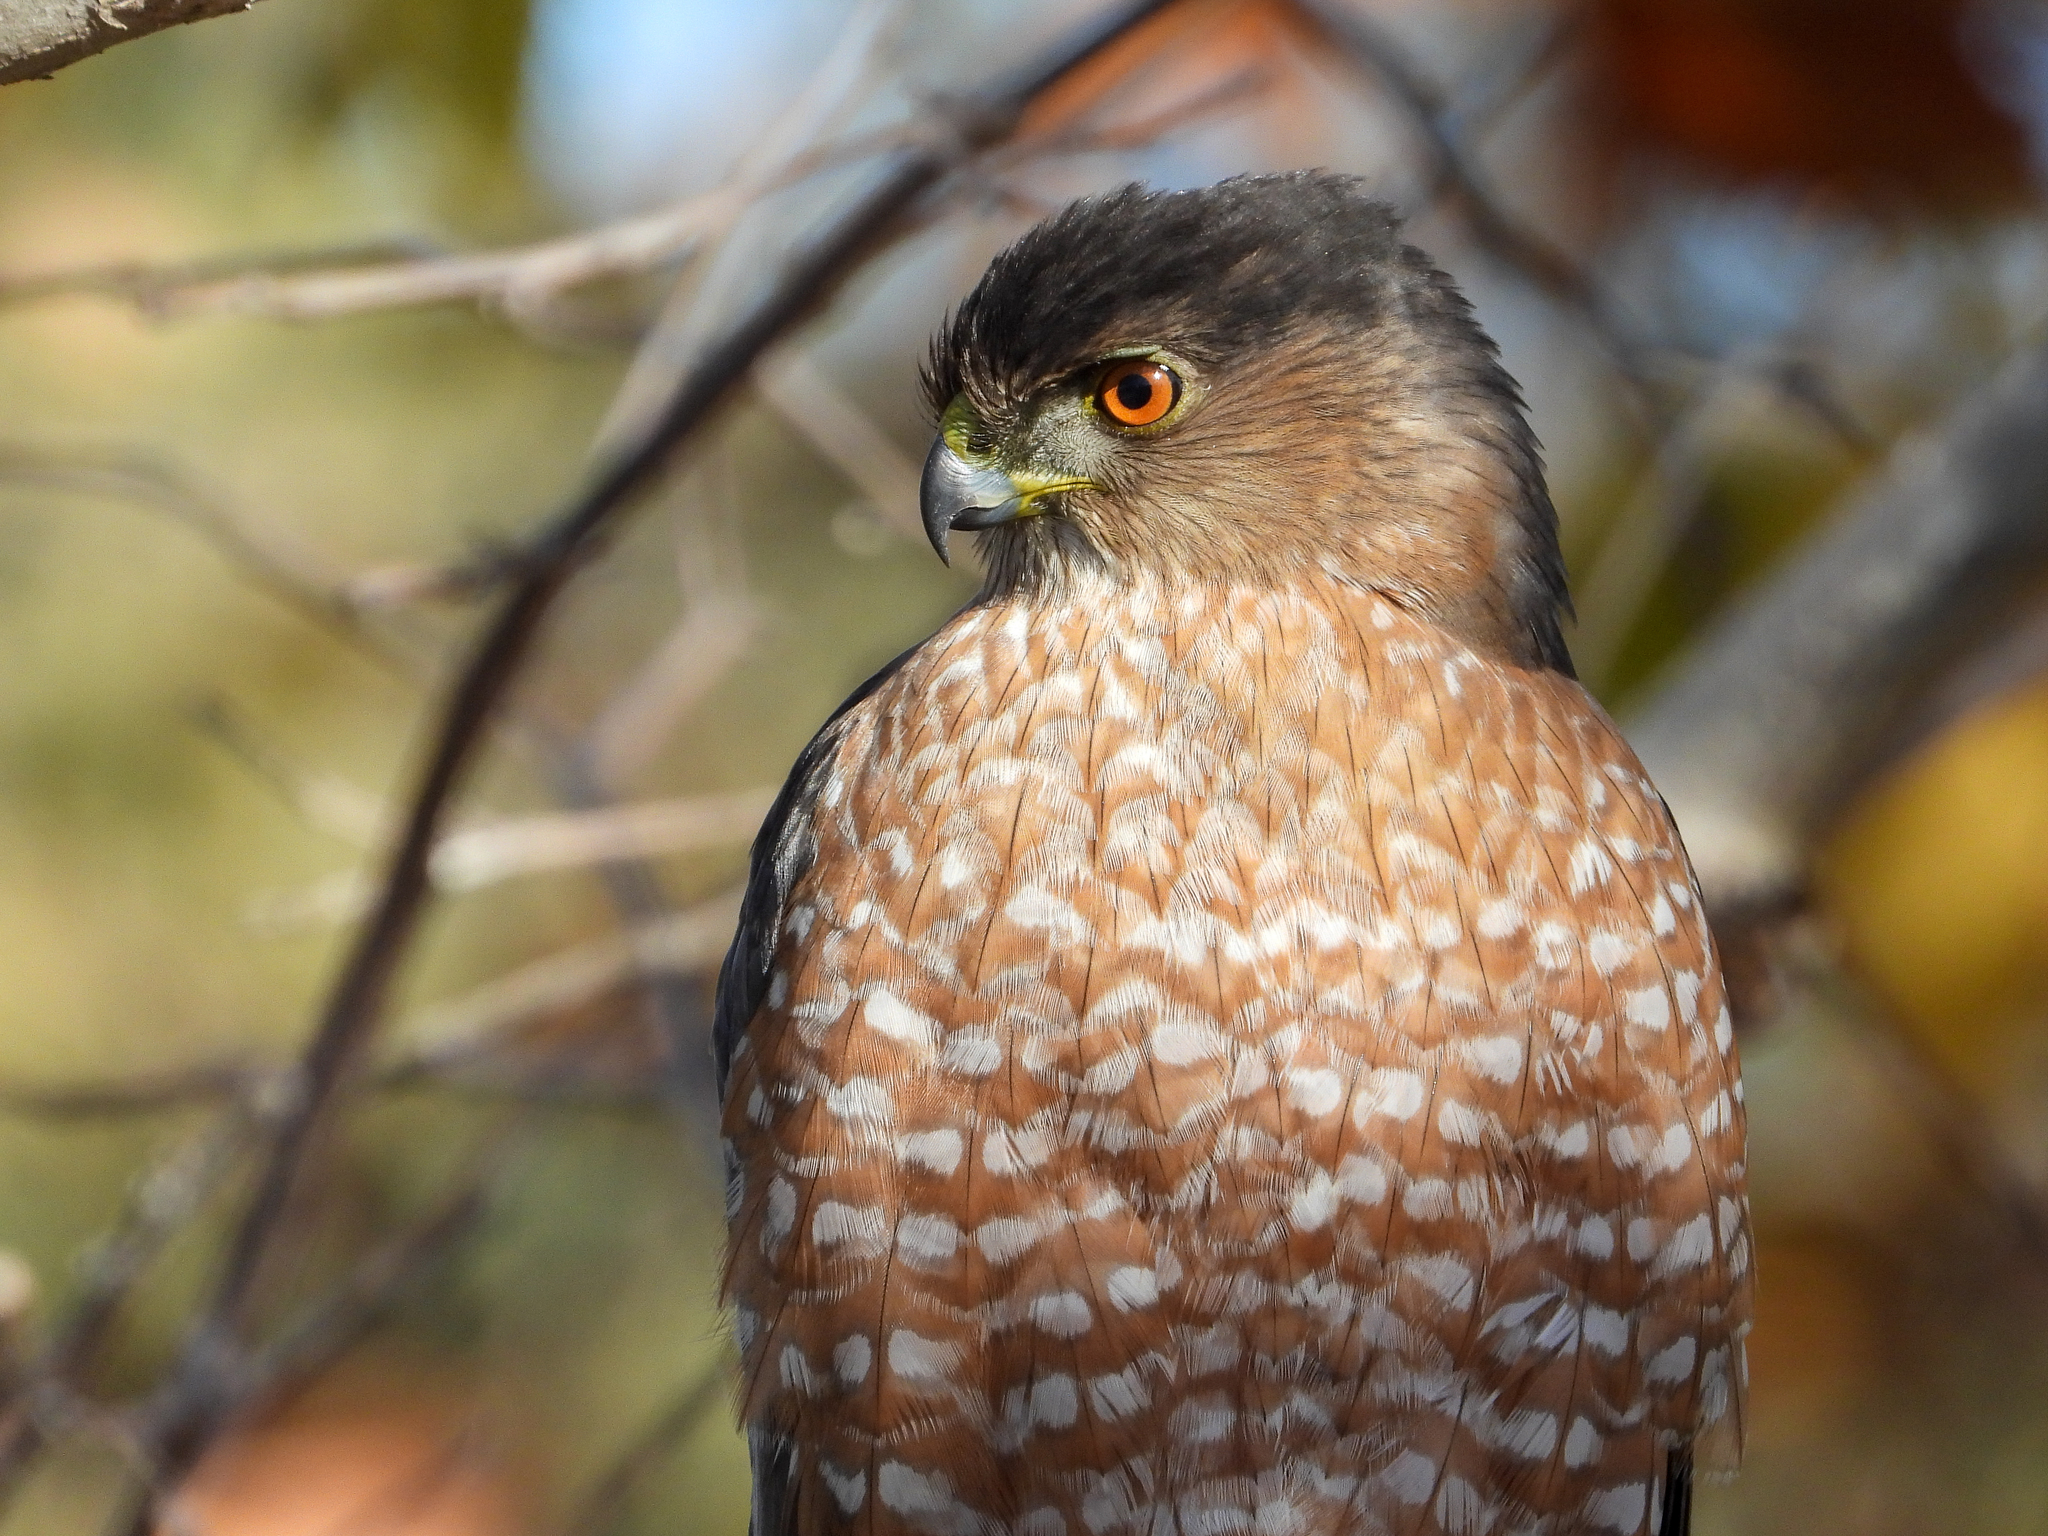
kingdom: Animalia
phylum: Chordata
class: Aves
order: Accipitriformes
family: Accipitridae
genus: Accipiter
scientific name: Accipiter cooperii
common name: Cooper's hawk
